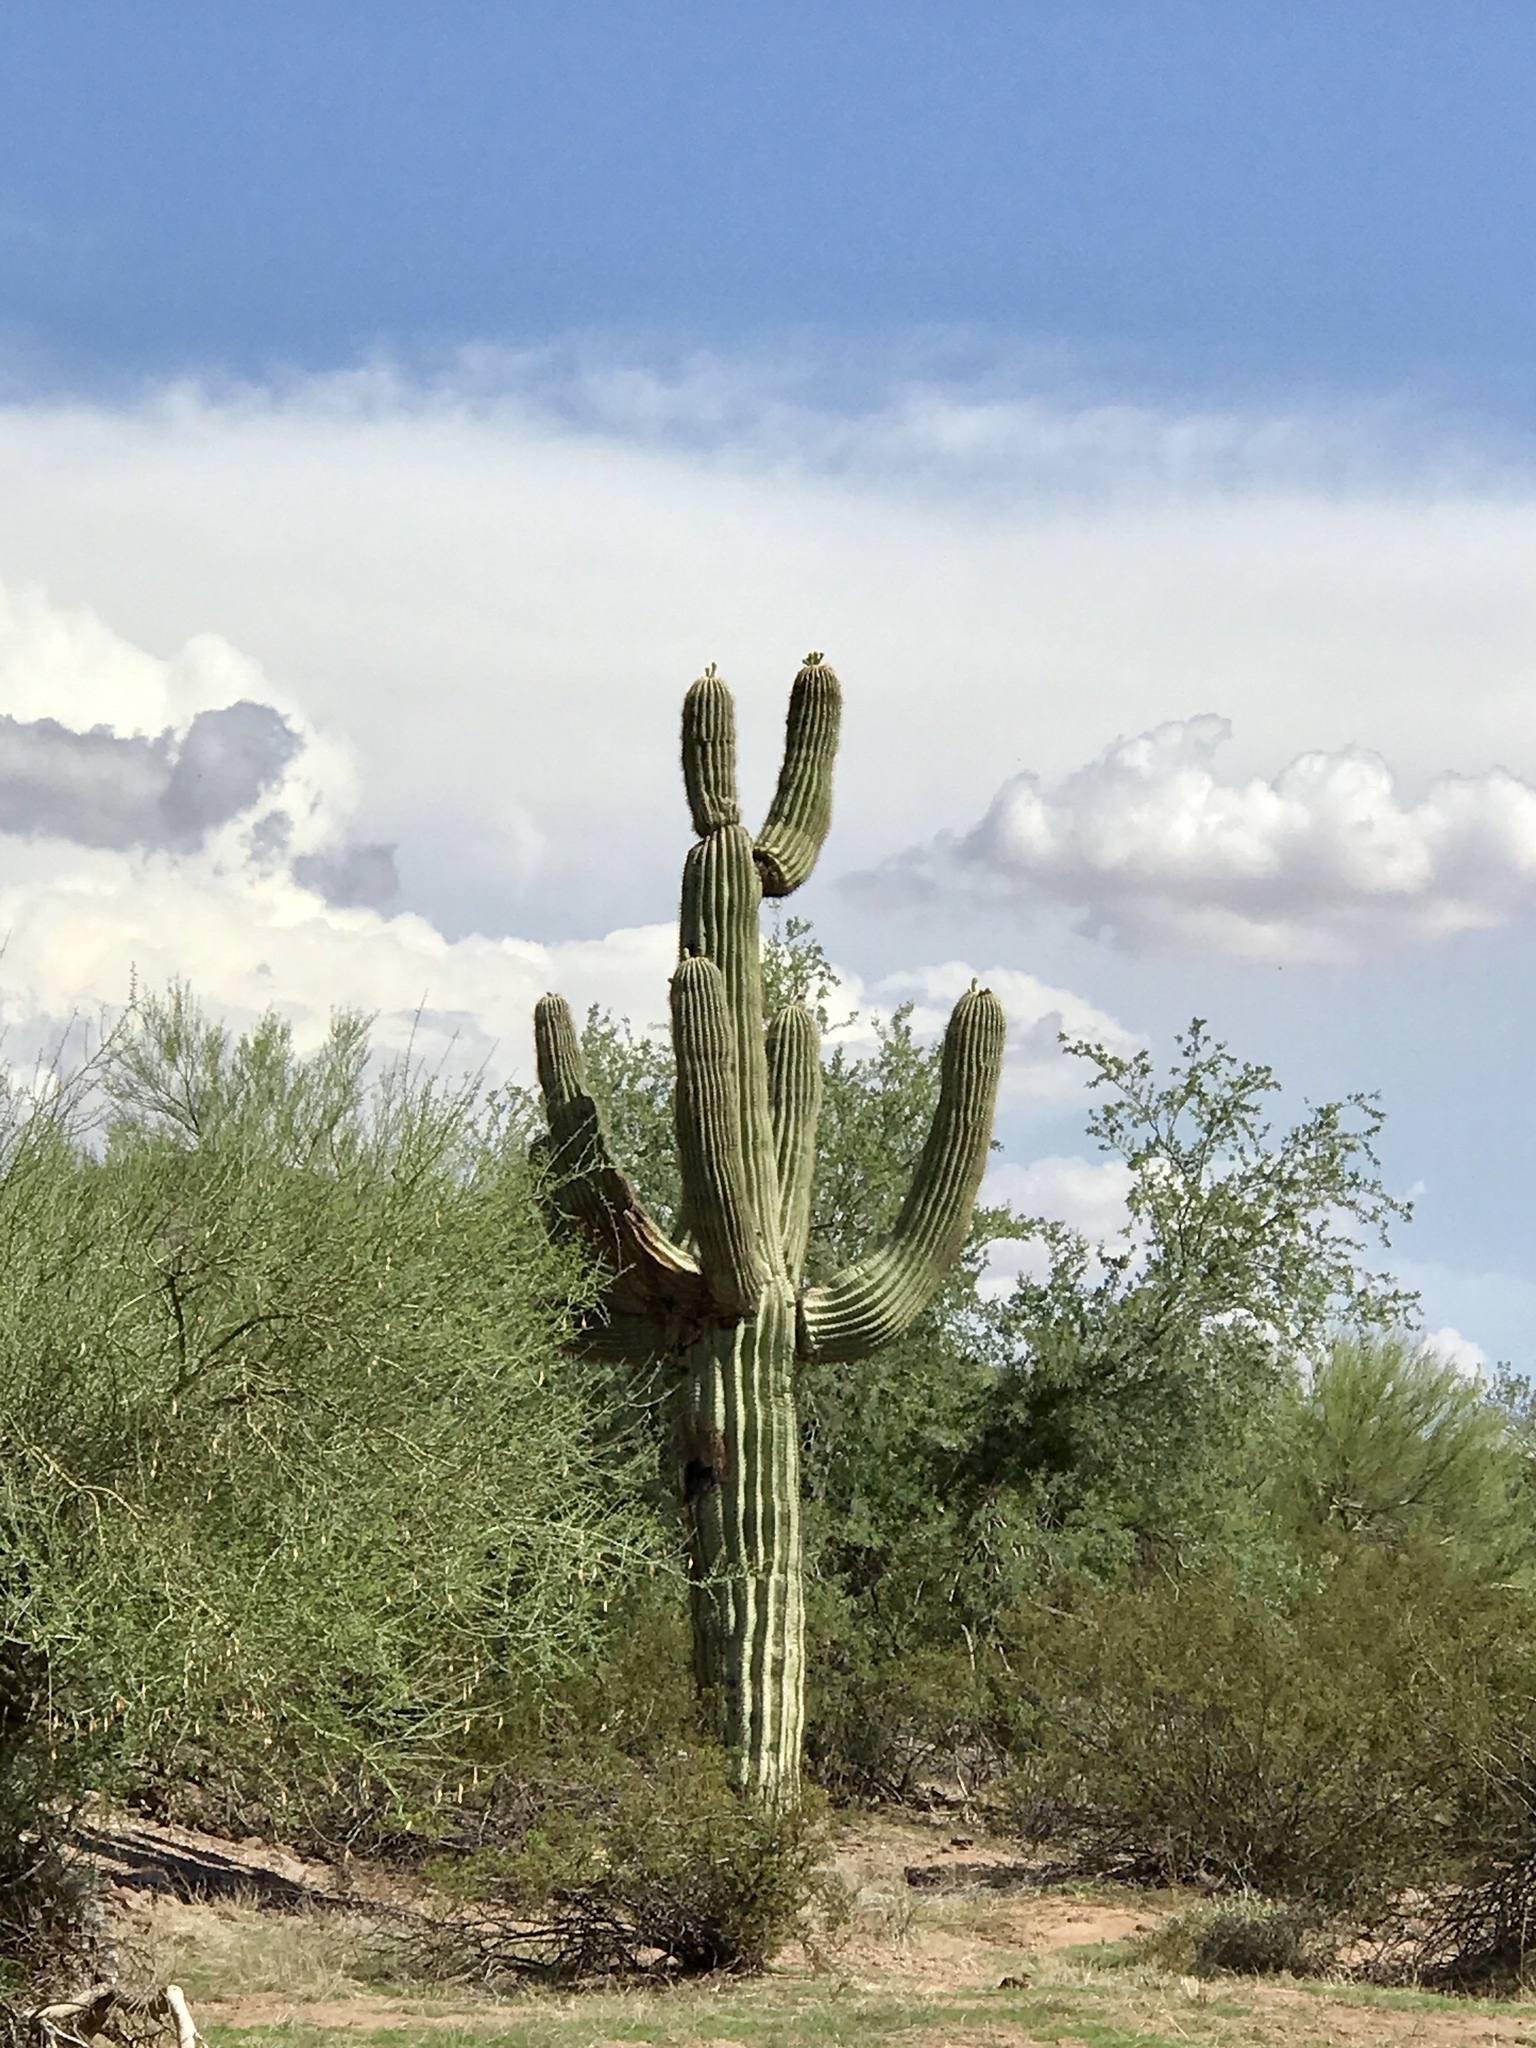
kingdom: Plantae
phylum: Tracheophyta
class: Magnoliopsida
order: Caryophyllales
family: Cactaceae
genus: Carnegiea
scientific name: Carnegiea gigantea
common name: Saguaro
